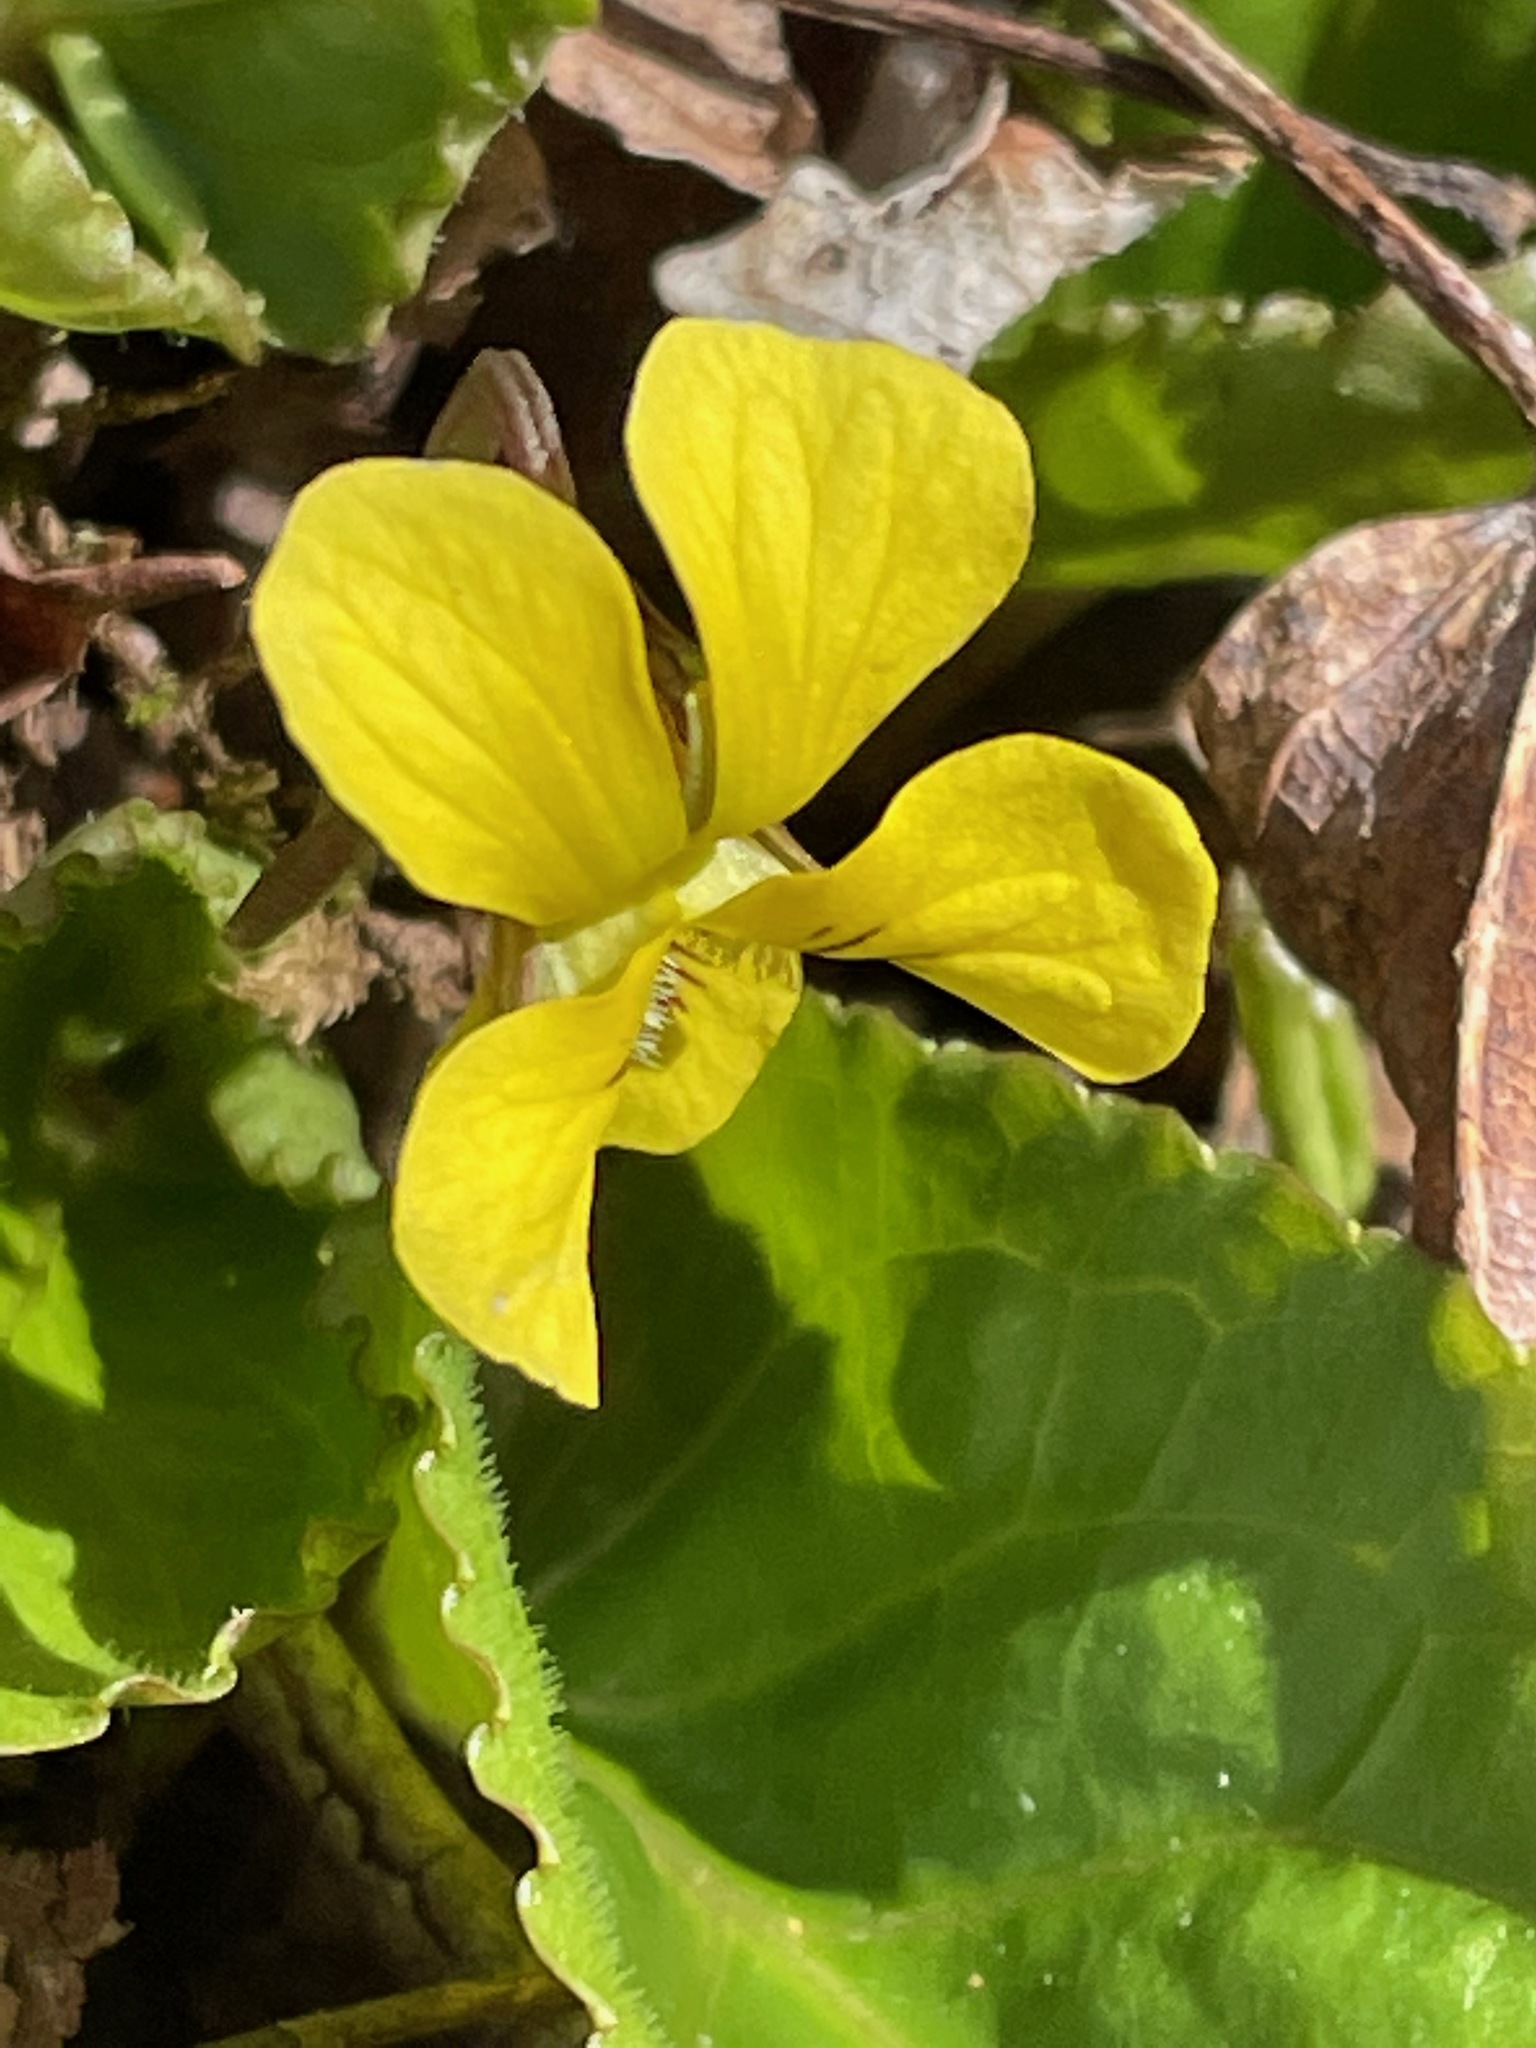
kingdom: Plantae
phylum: Tracheophyta
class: Magnoliopsida
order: Malpighiales
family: Violaceae
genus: Viola
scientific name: Viola rotundifolia
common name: Early yellow violet
